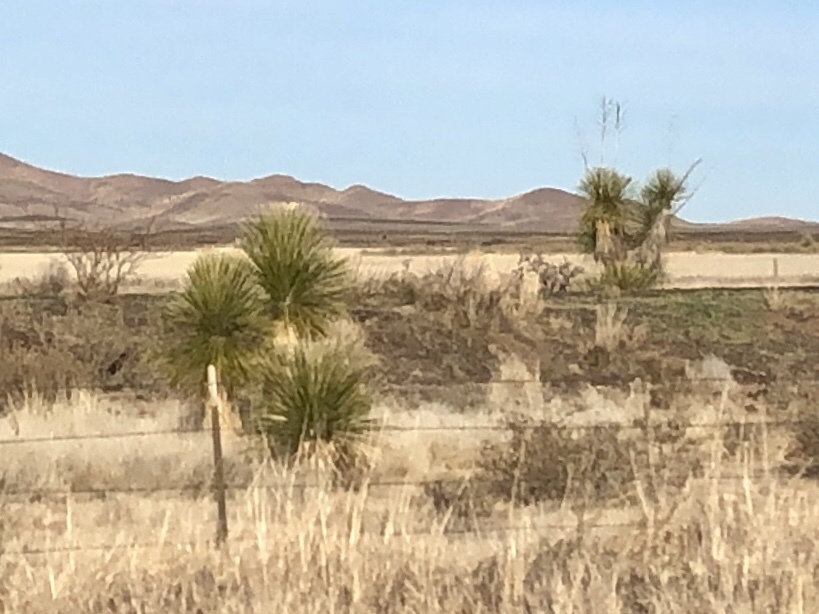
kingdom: Plantae
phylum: Tracheophyta
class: Liliopsida
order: Asparagales
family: Asparagaceae
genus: Yucca
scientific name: Yucca elata
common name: Palmella
